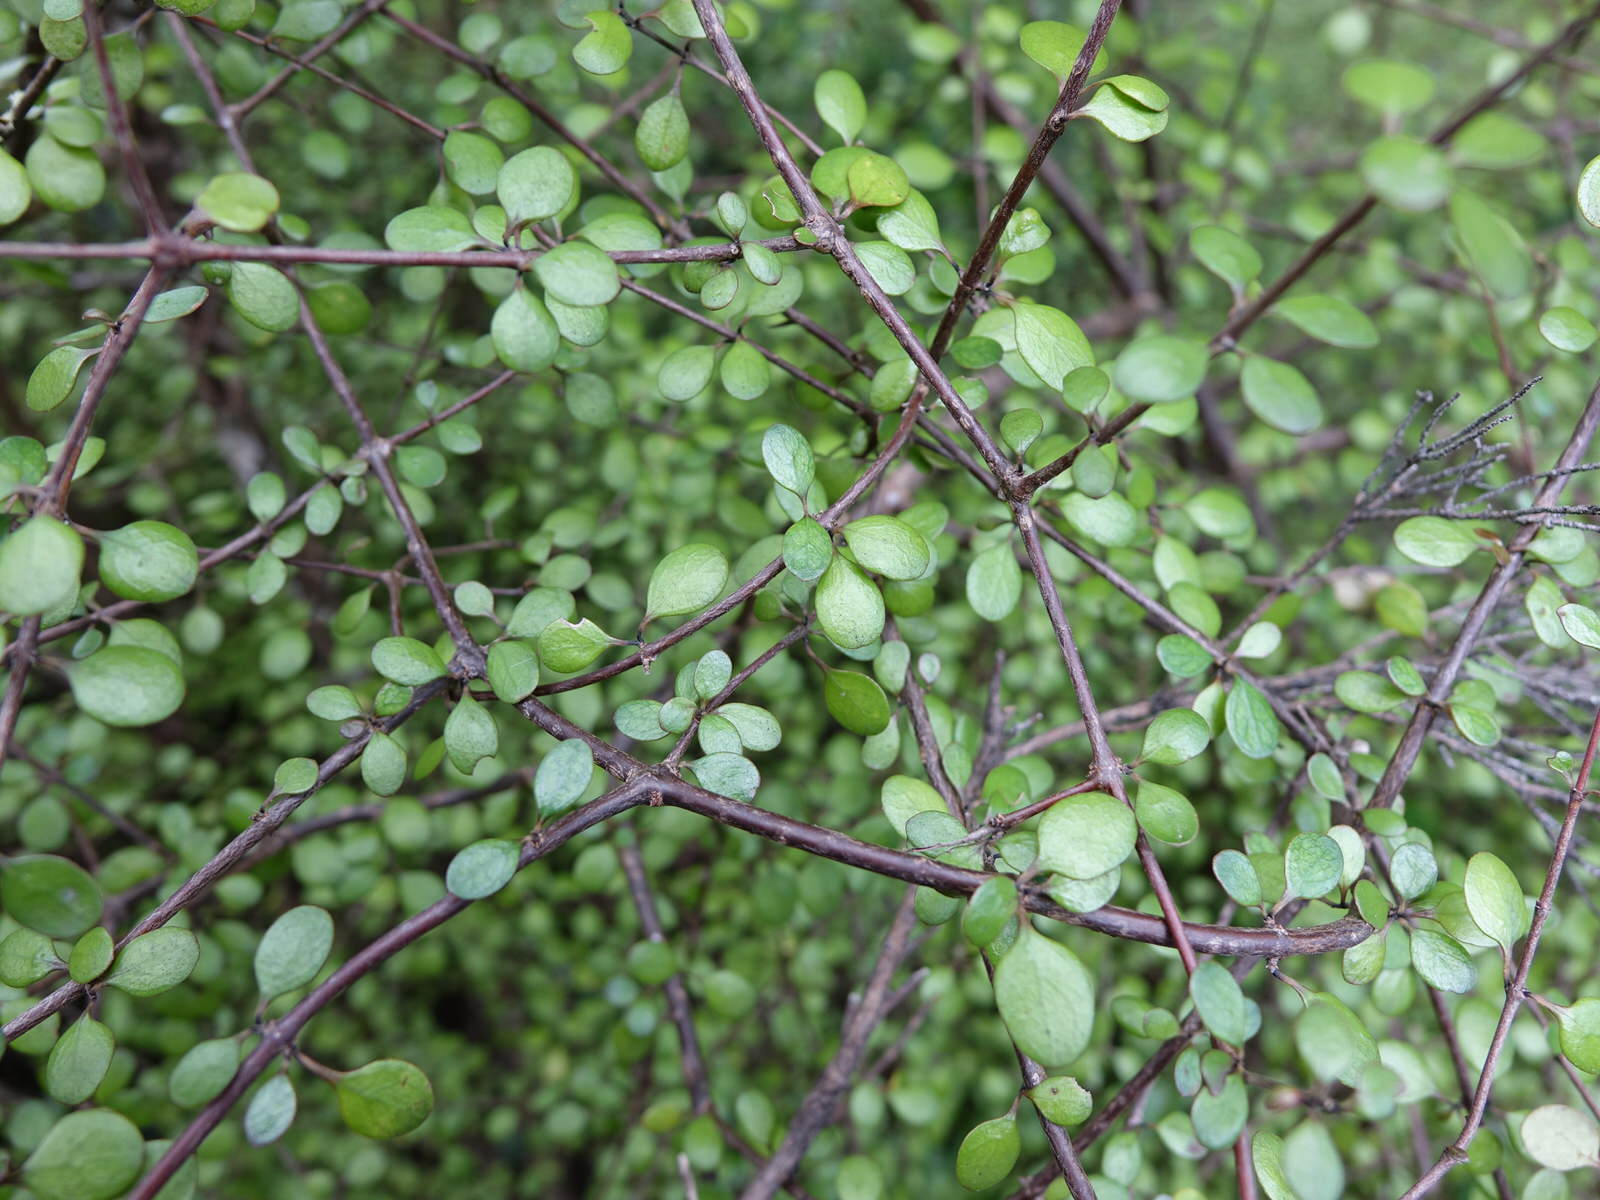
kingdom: Plantae
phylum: Tracheophyta
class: Magnoliopsida
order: Gentianales
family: Rubiaceae
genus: Coprosma
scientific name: Coprosma crassifolia
